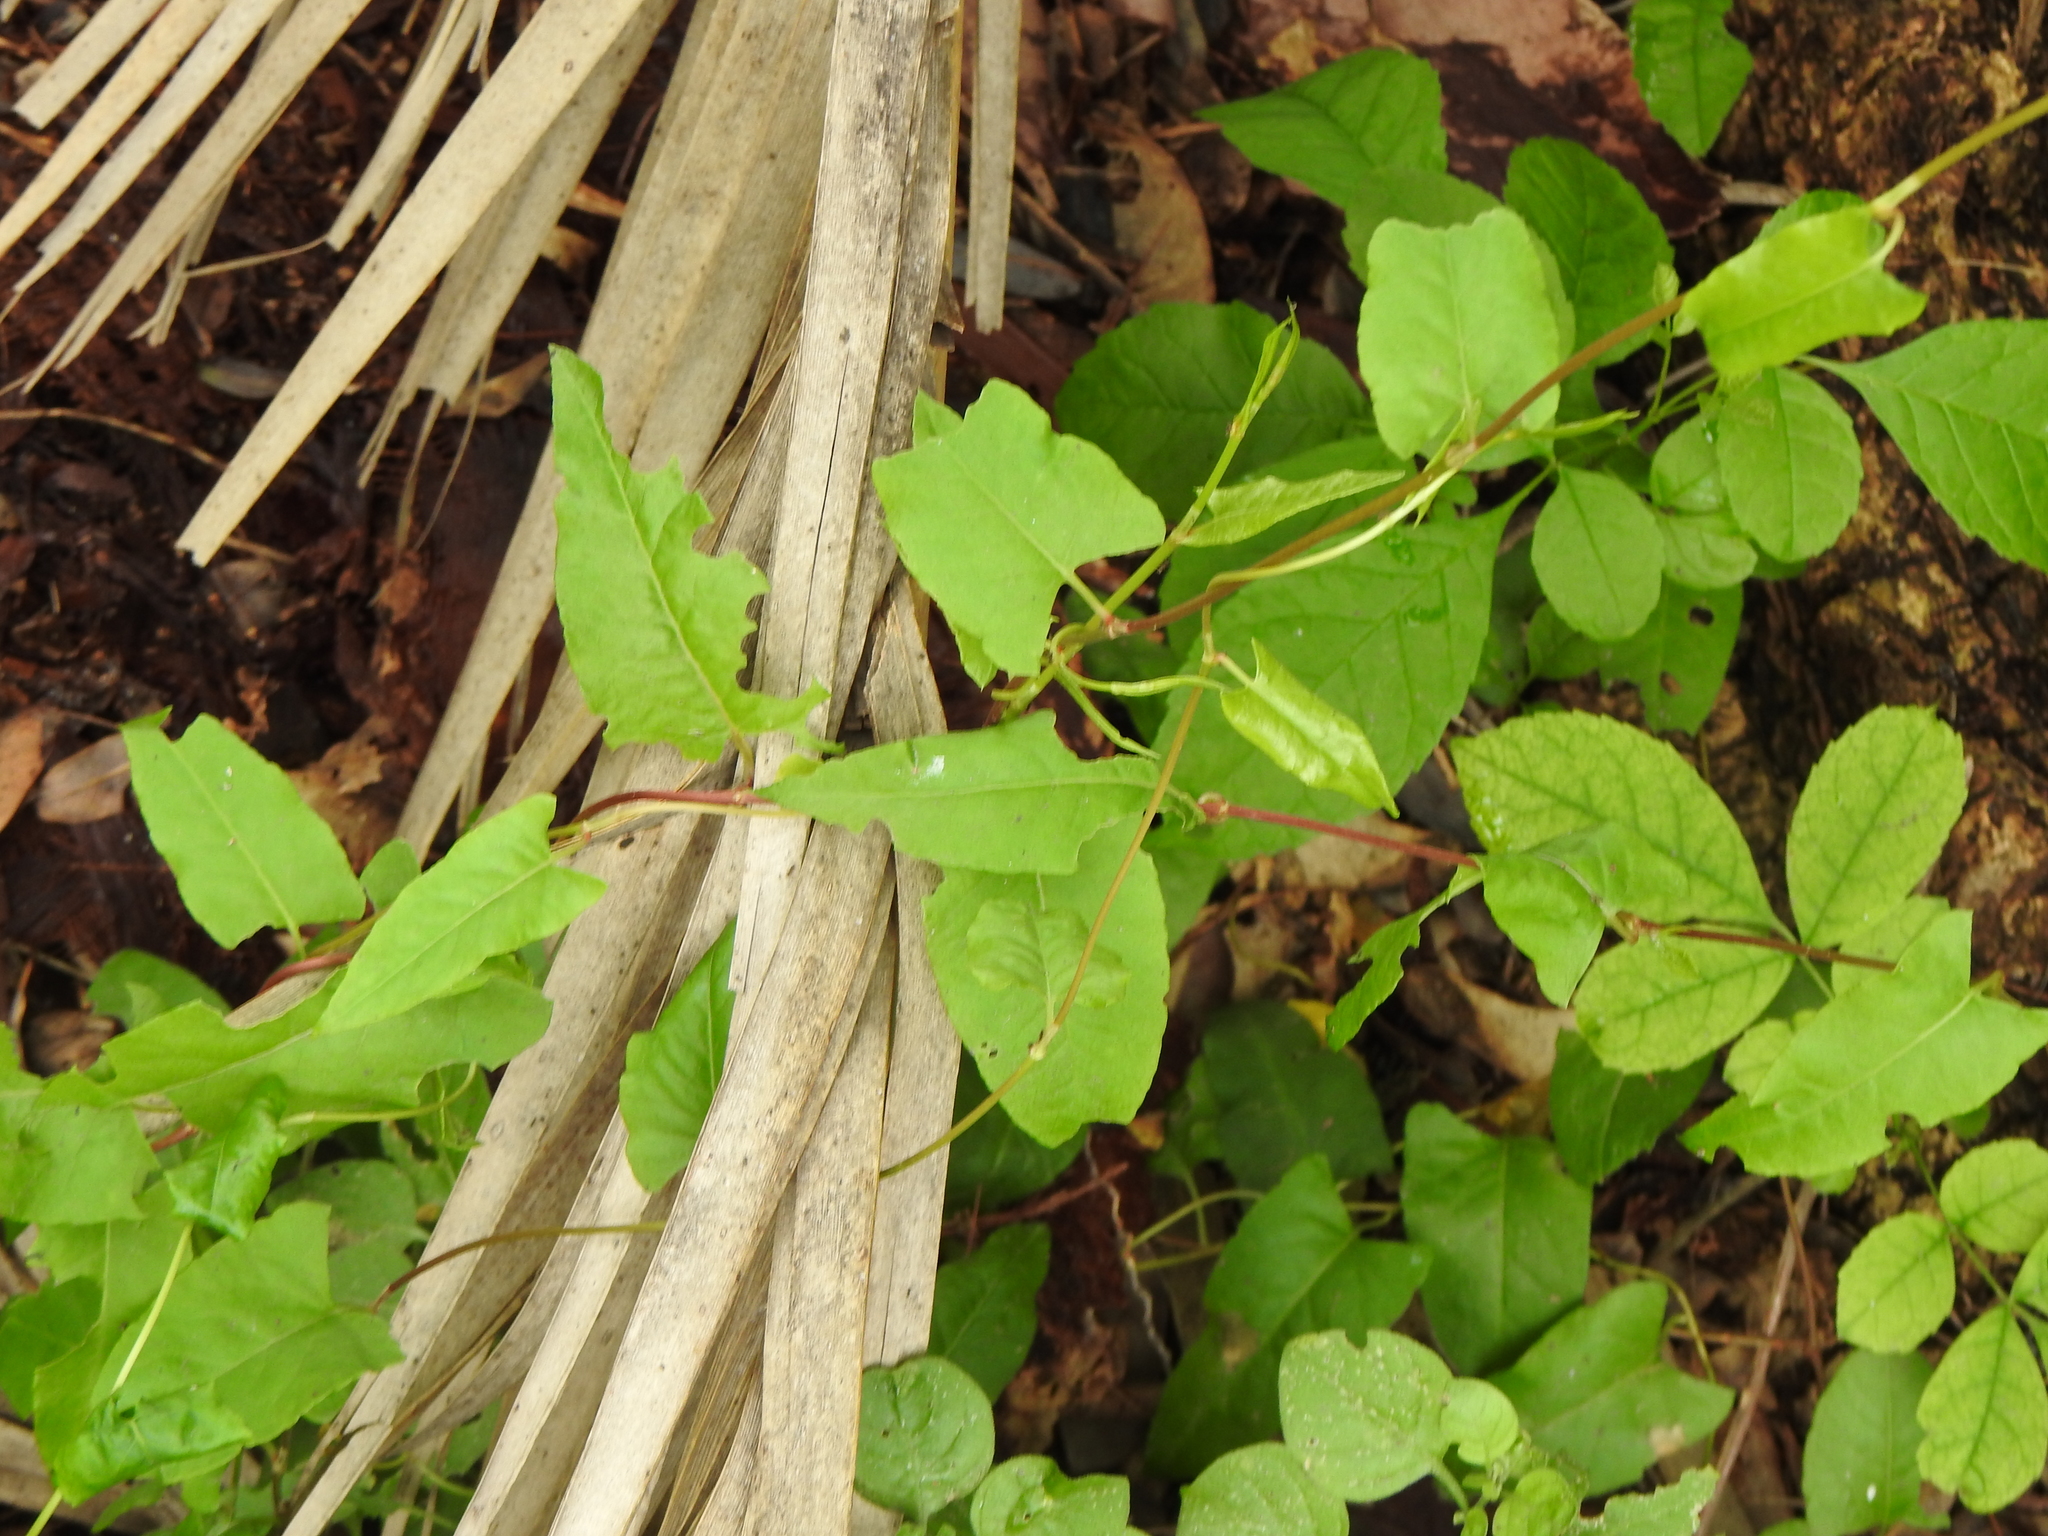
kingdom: Plantae
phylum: Tracheophyta
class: Magnoliopsida
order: Caryophyllales
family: Polygonaceae
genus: Muehlenbeckia
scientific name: Muehlenbeckia sagittifolia
